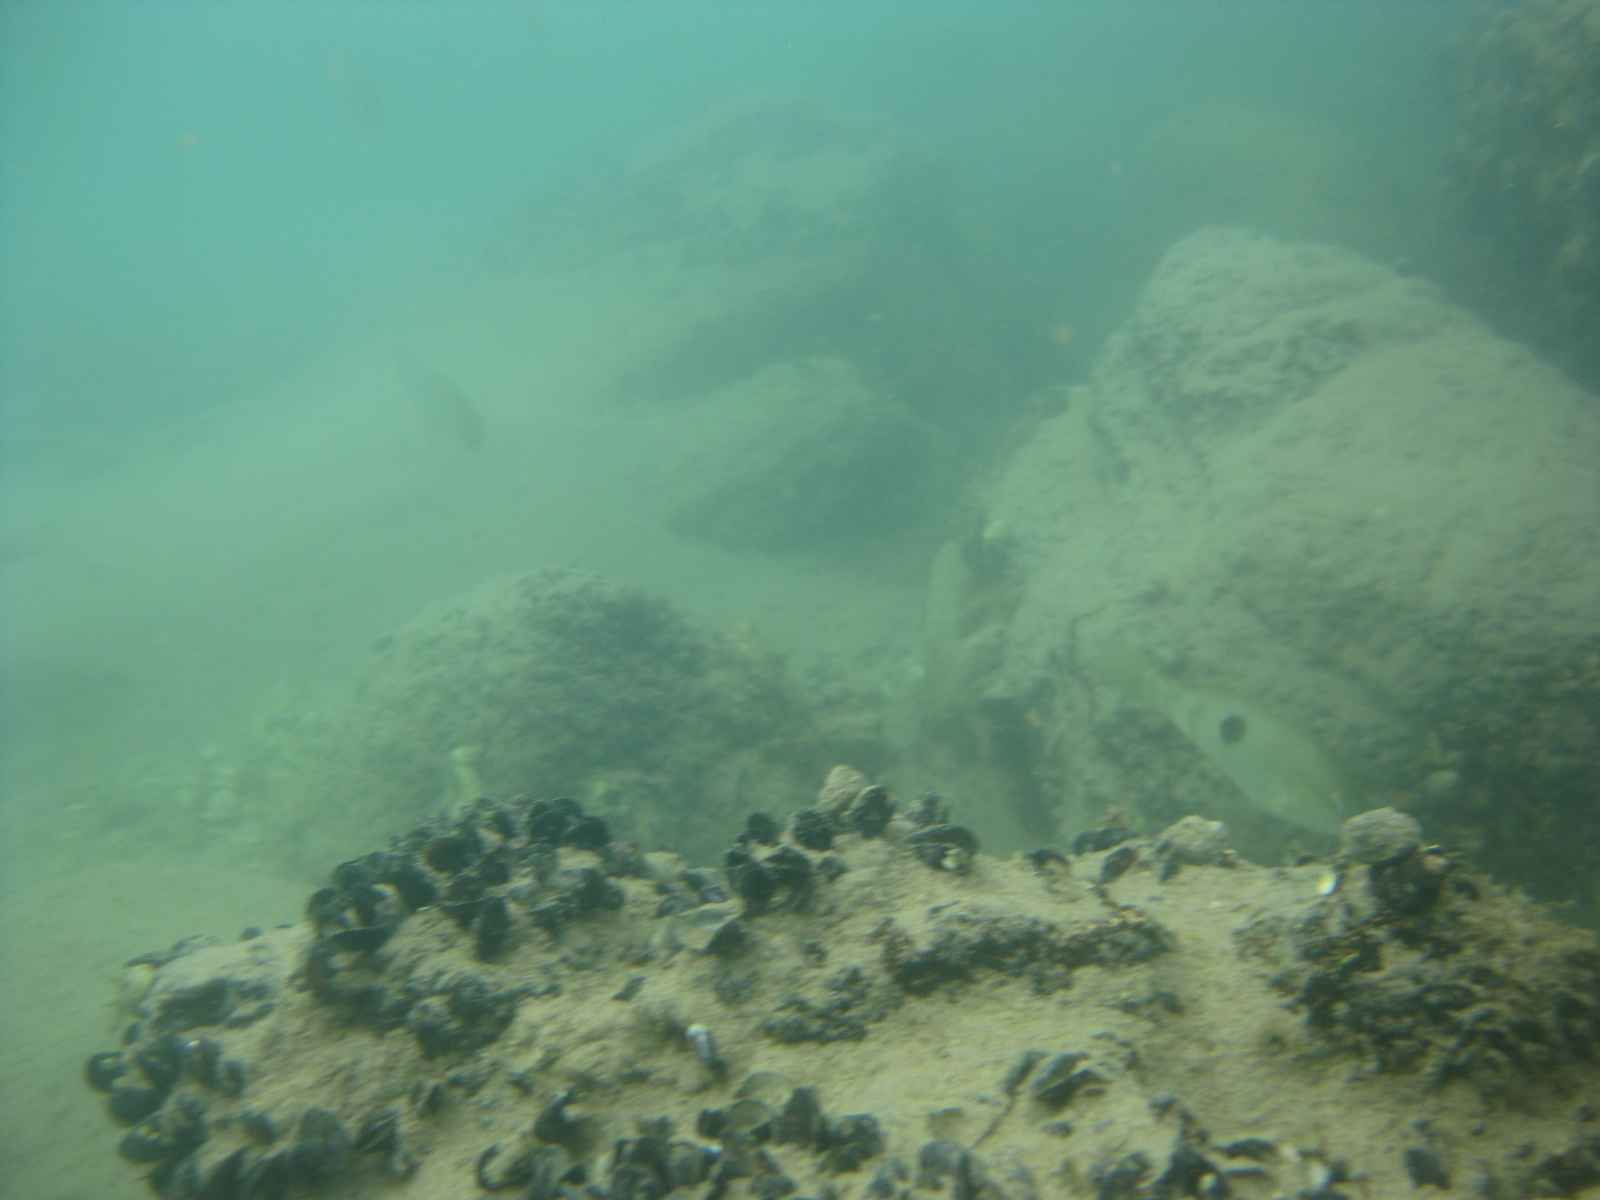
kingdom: Animalia
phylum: Mollusca
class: Bivalvia
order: Mytilida
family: Mytilidae
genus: Xenostrobus
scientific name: Xenostrobus neozelanicus
